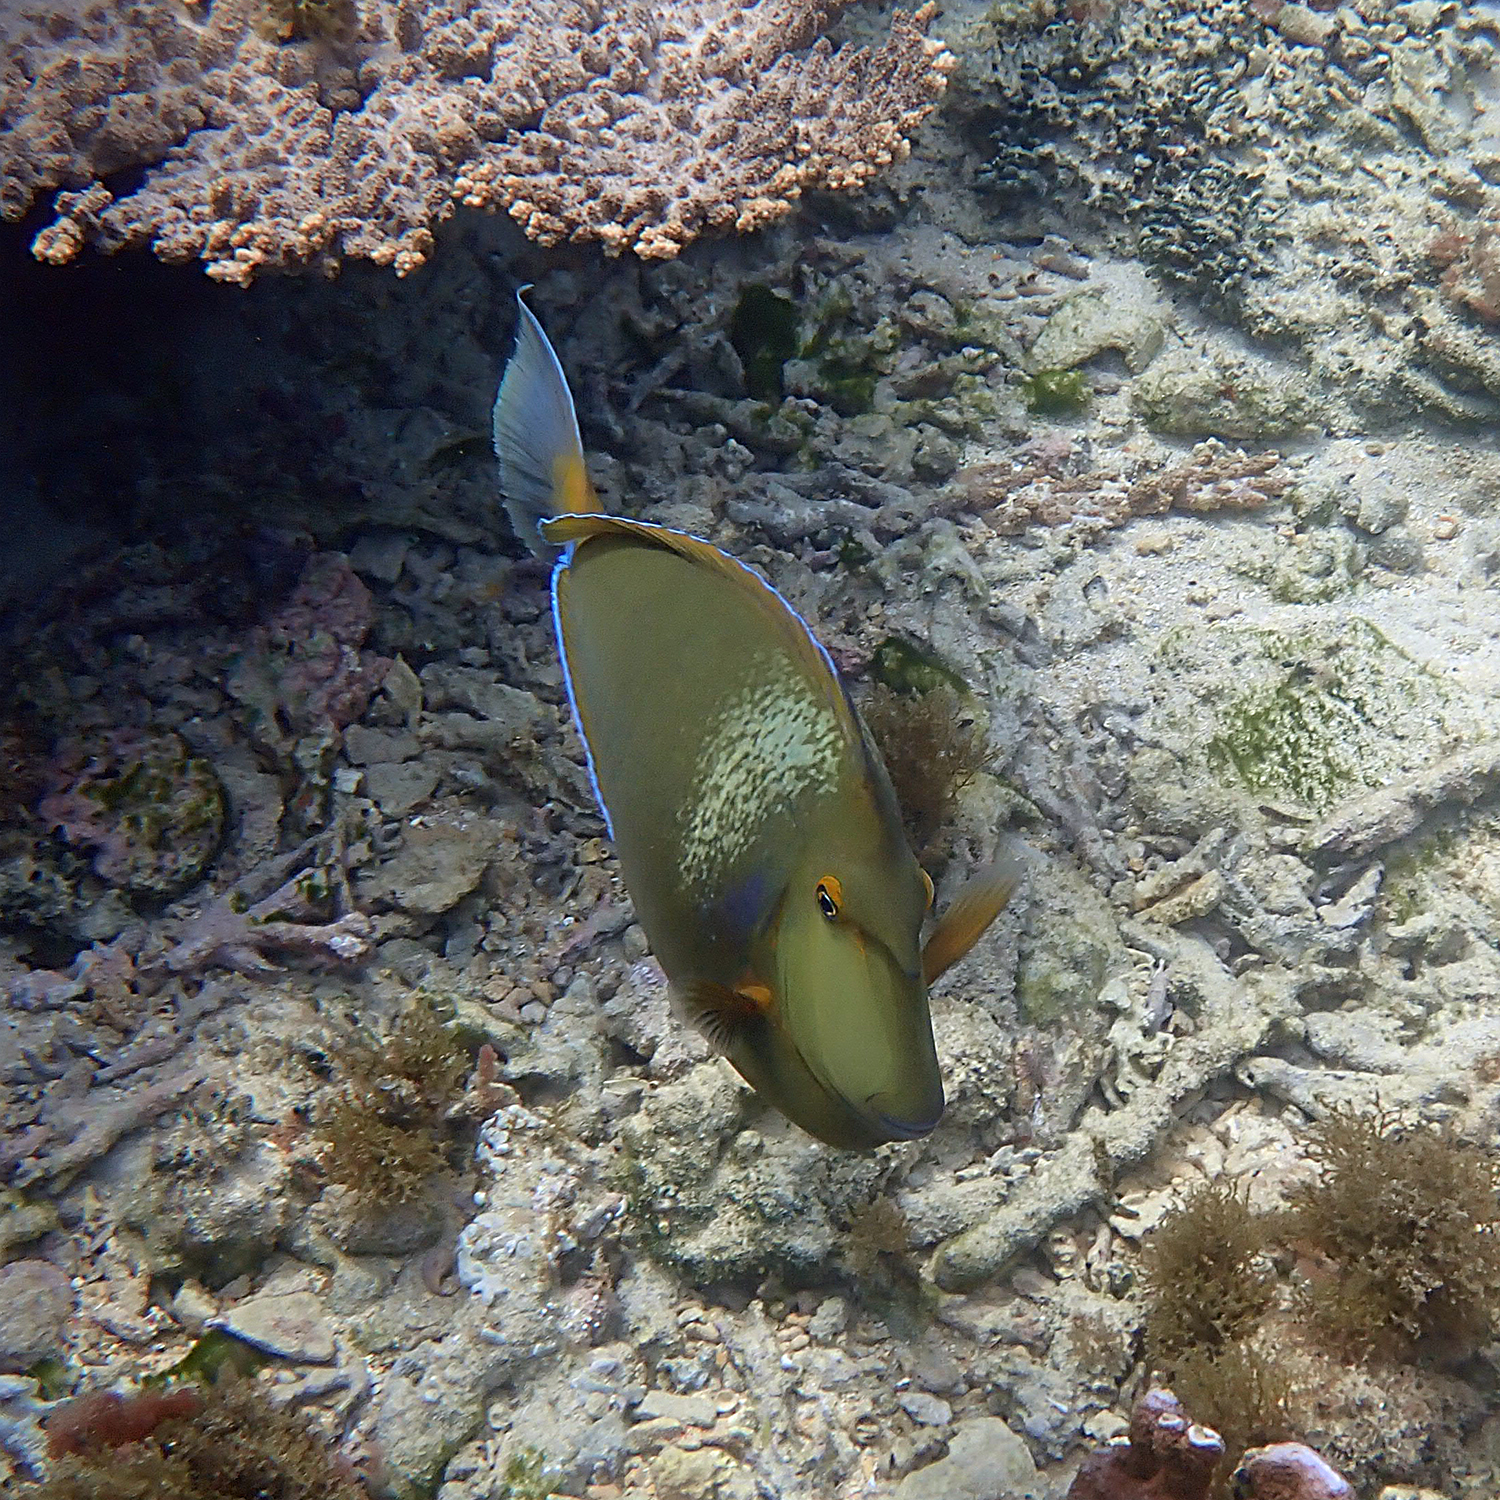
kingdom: Animalia
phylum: Chordata
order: Perciformes
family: Acanthuridae
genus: Naso
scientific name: Naso unicornis
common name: Bluespine unicornfish
